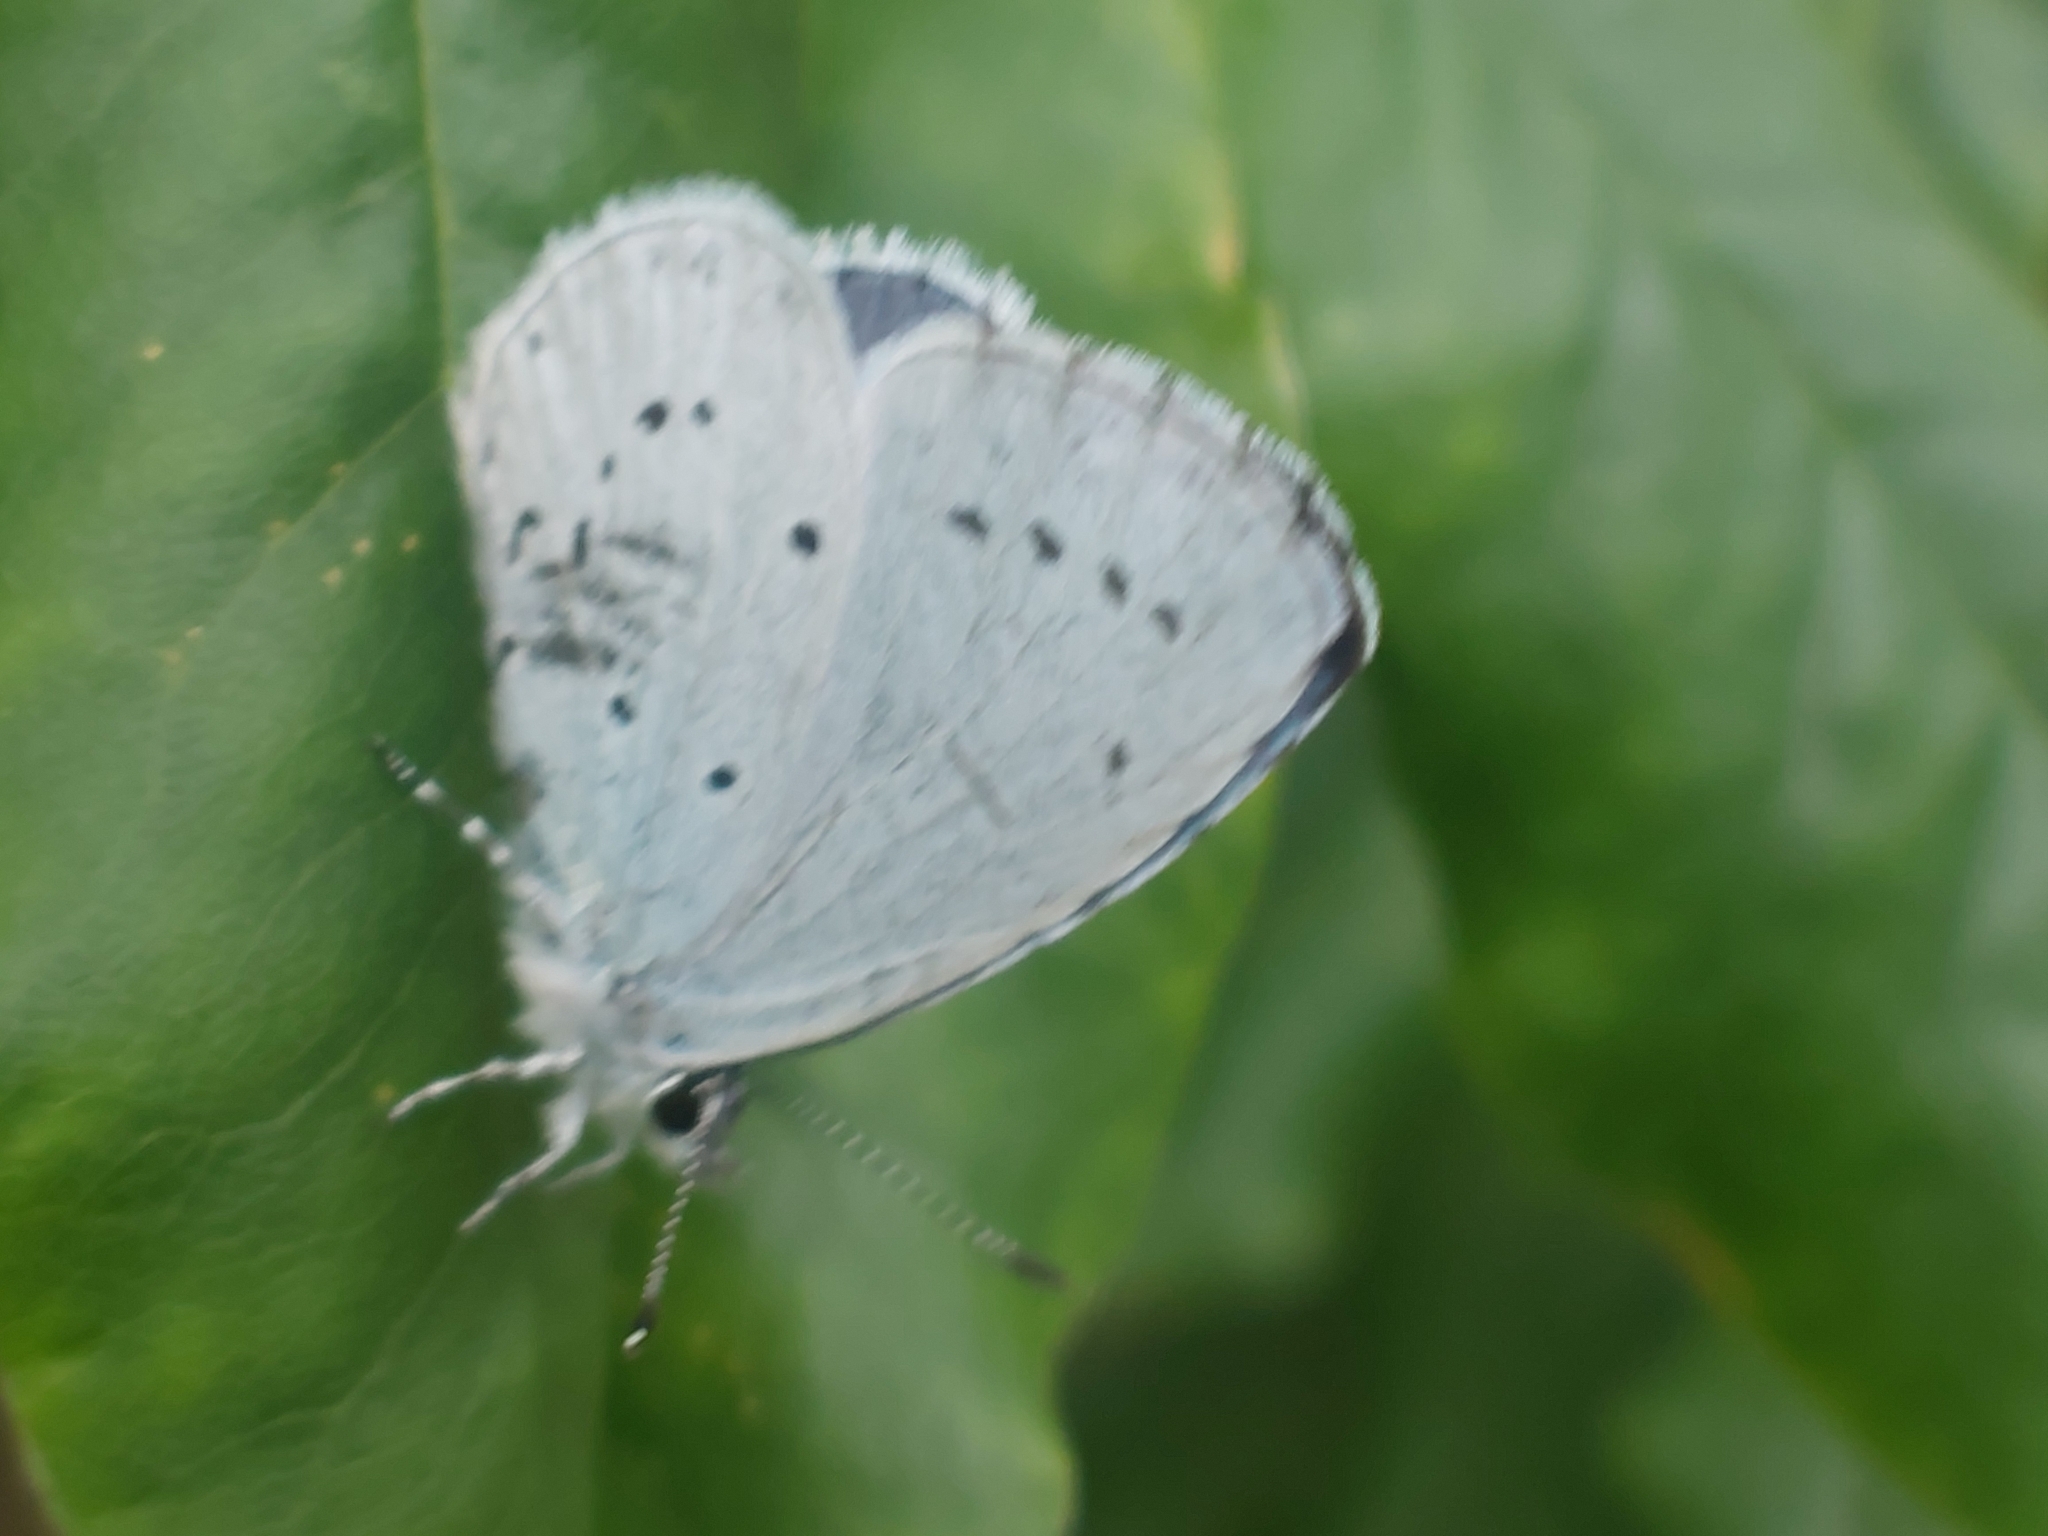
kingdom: Animalia
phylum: Arthropoda
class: Insecta
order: Lepidoptera
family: Lycaenidae
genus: Celastrina
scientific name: Celastrina argiolus
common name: Holly blue
